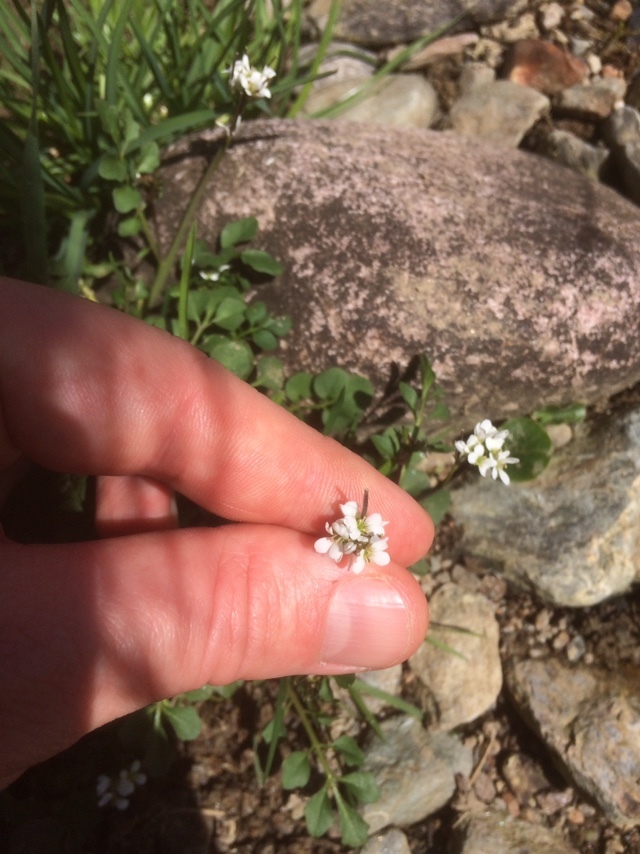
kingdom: Plantae
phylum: Tracheophyta
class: Magnoliopsida
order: Brassicales
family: Brassicaceae
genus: Cardamine
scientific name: Cardamine hirsuta
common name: Hairy bittercress
